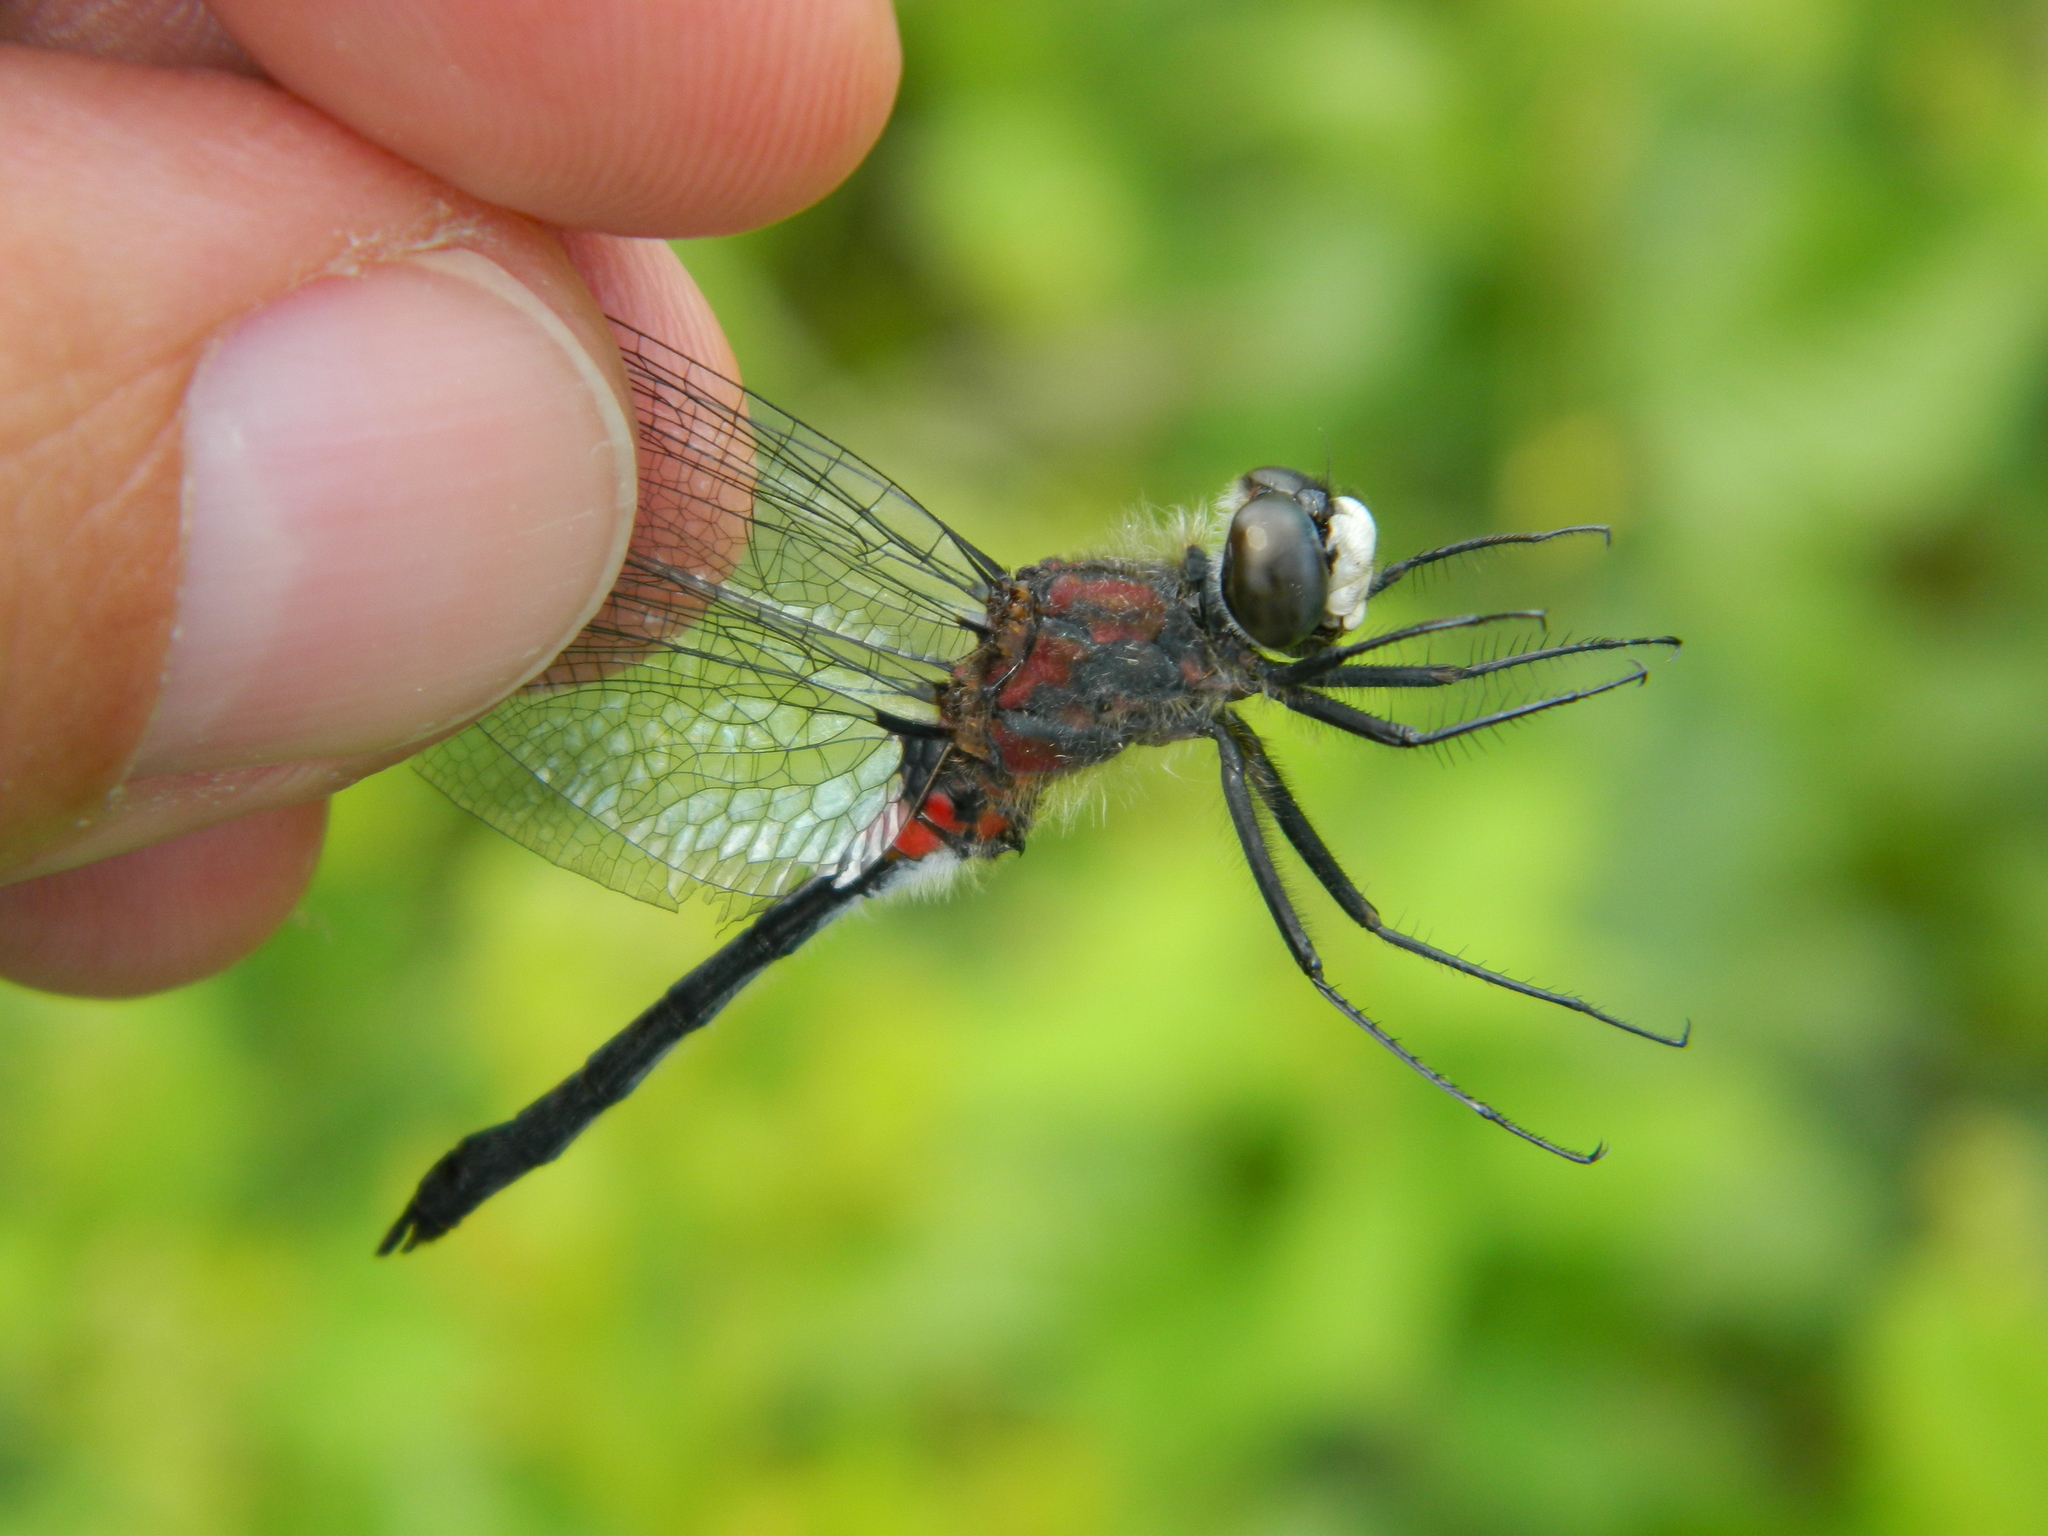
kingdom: Animalia
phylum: Arthropoda
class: Insecta
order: Odonata
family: Libellulidae
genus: Leucorrhinia
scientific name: Leucorrhinia proxima
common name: Belted whiteface
